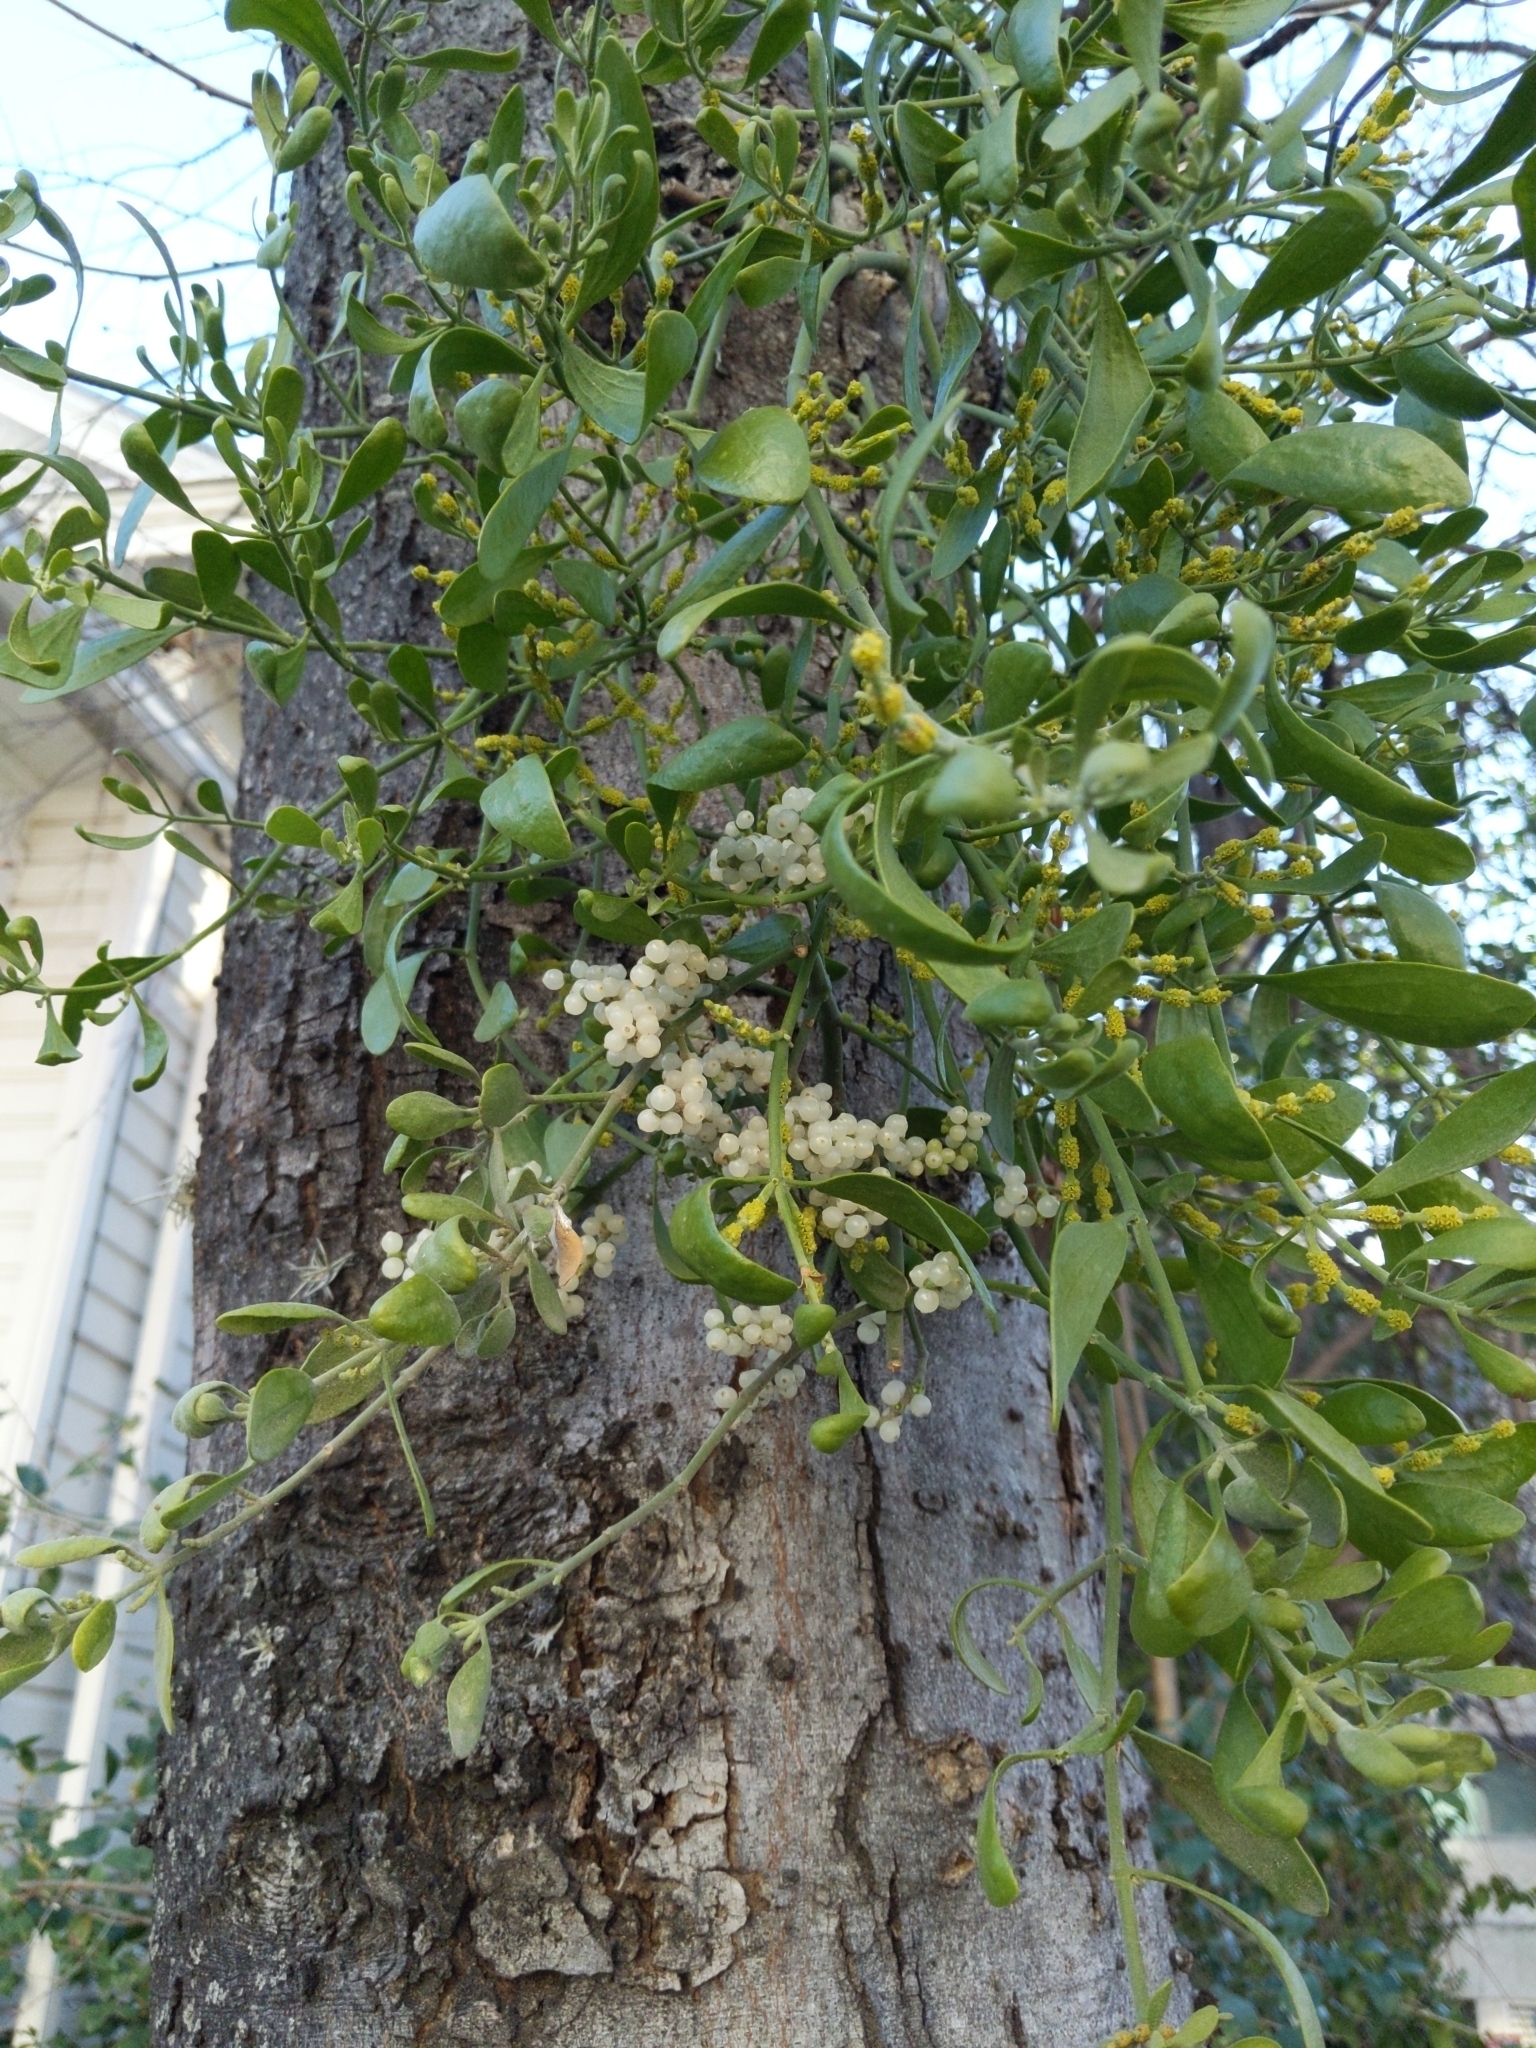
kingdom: Plantae
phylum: Tracheophyta
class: Magnoliopsida
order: Santalales
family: Viscaceae
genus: Phoradendron
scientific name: Phoradendron leucarpum
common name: Pacific mistletoe
